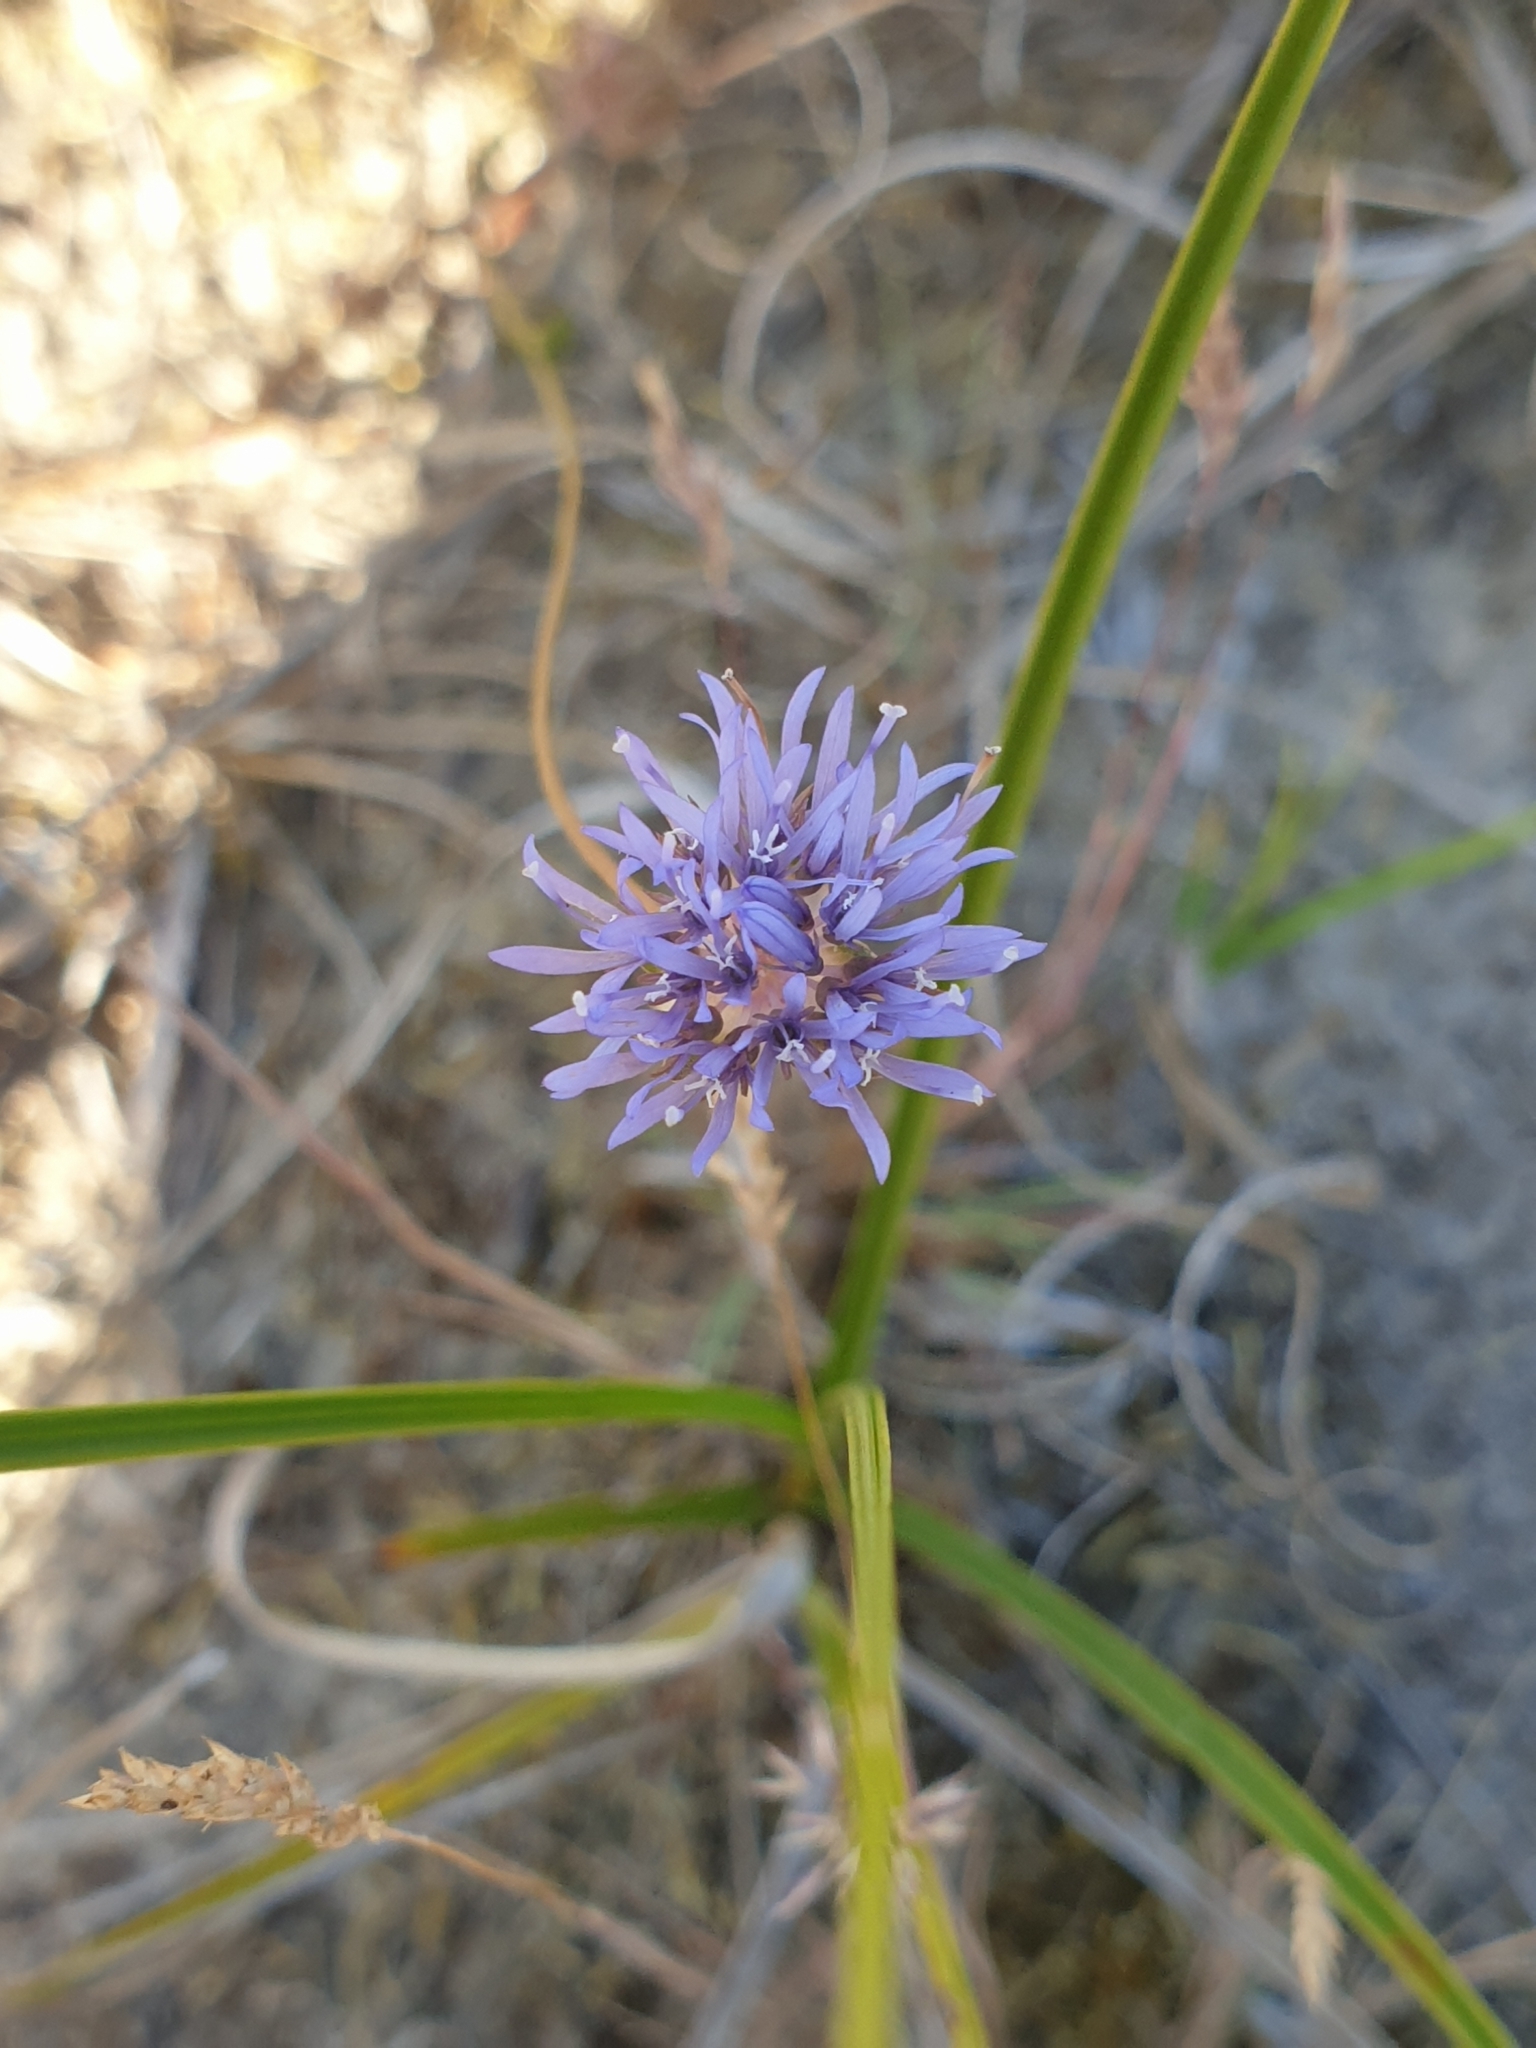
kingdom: Plantae
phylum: Tracheophyta
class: Magnoliopsida
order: Asterales
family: Campanulaceae
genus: Jasione
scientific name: Jasione montana
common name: Sheep's-bit
